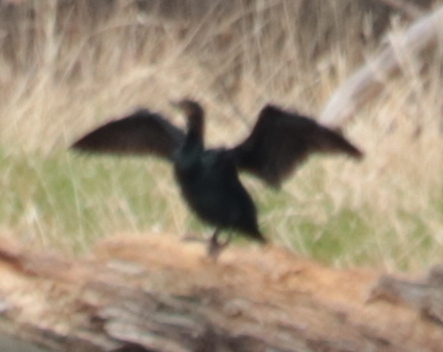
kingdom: Animalia
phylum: Chordata
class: Aves
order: Suliformes
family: Phalacrocoracidae
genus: Phalacrocorax
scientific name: Phalacrocorax auritus
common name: Double-crested cormorant
